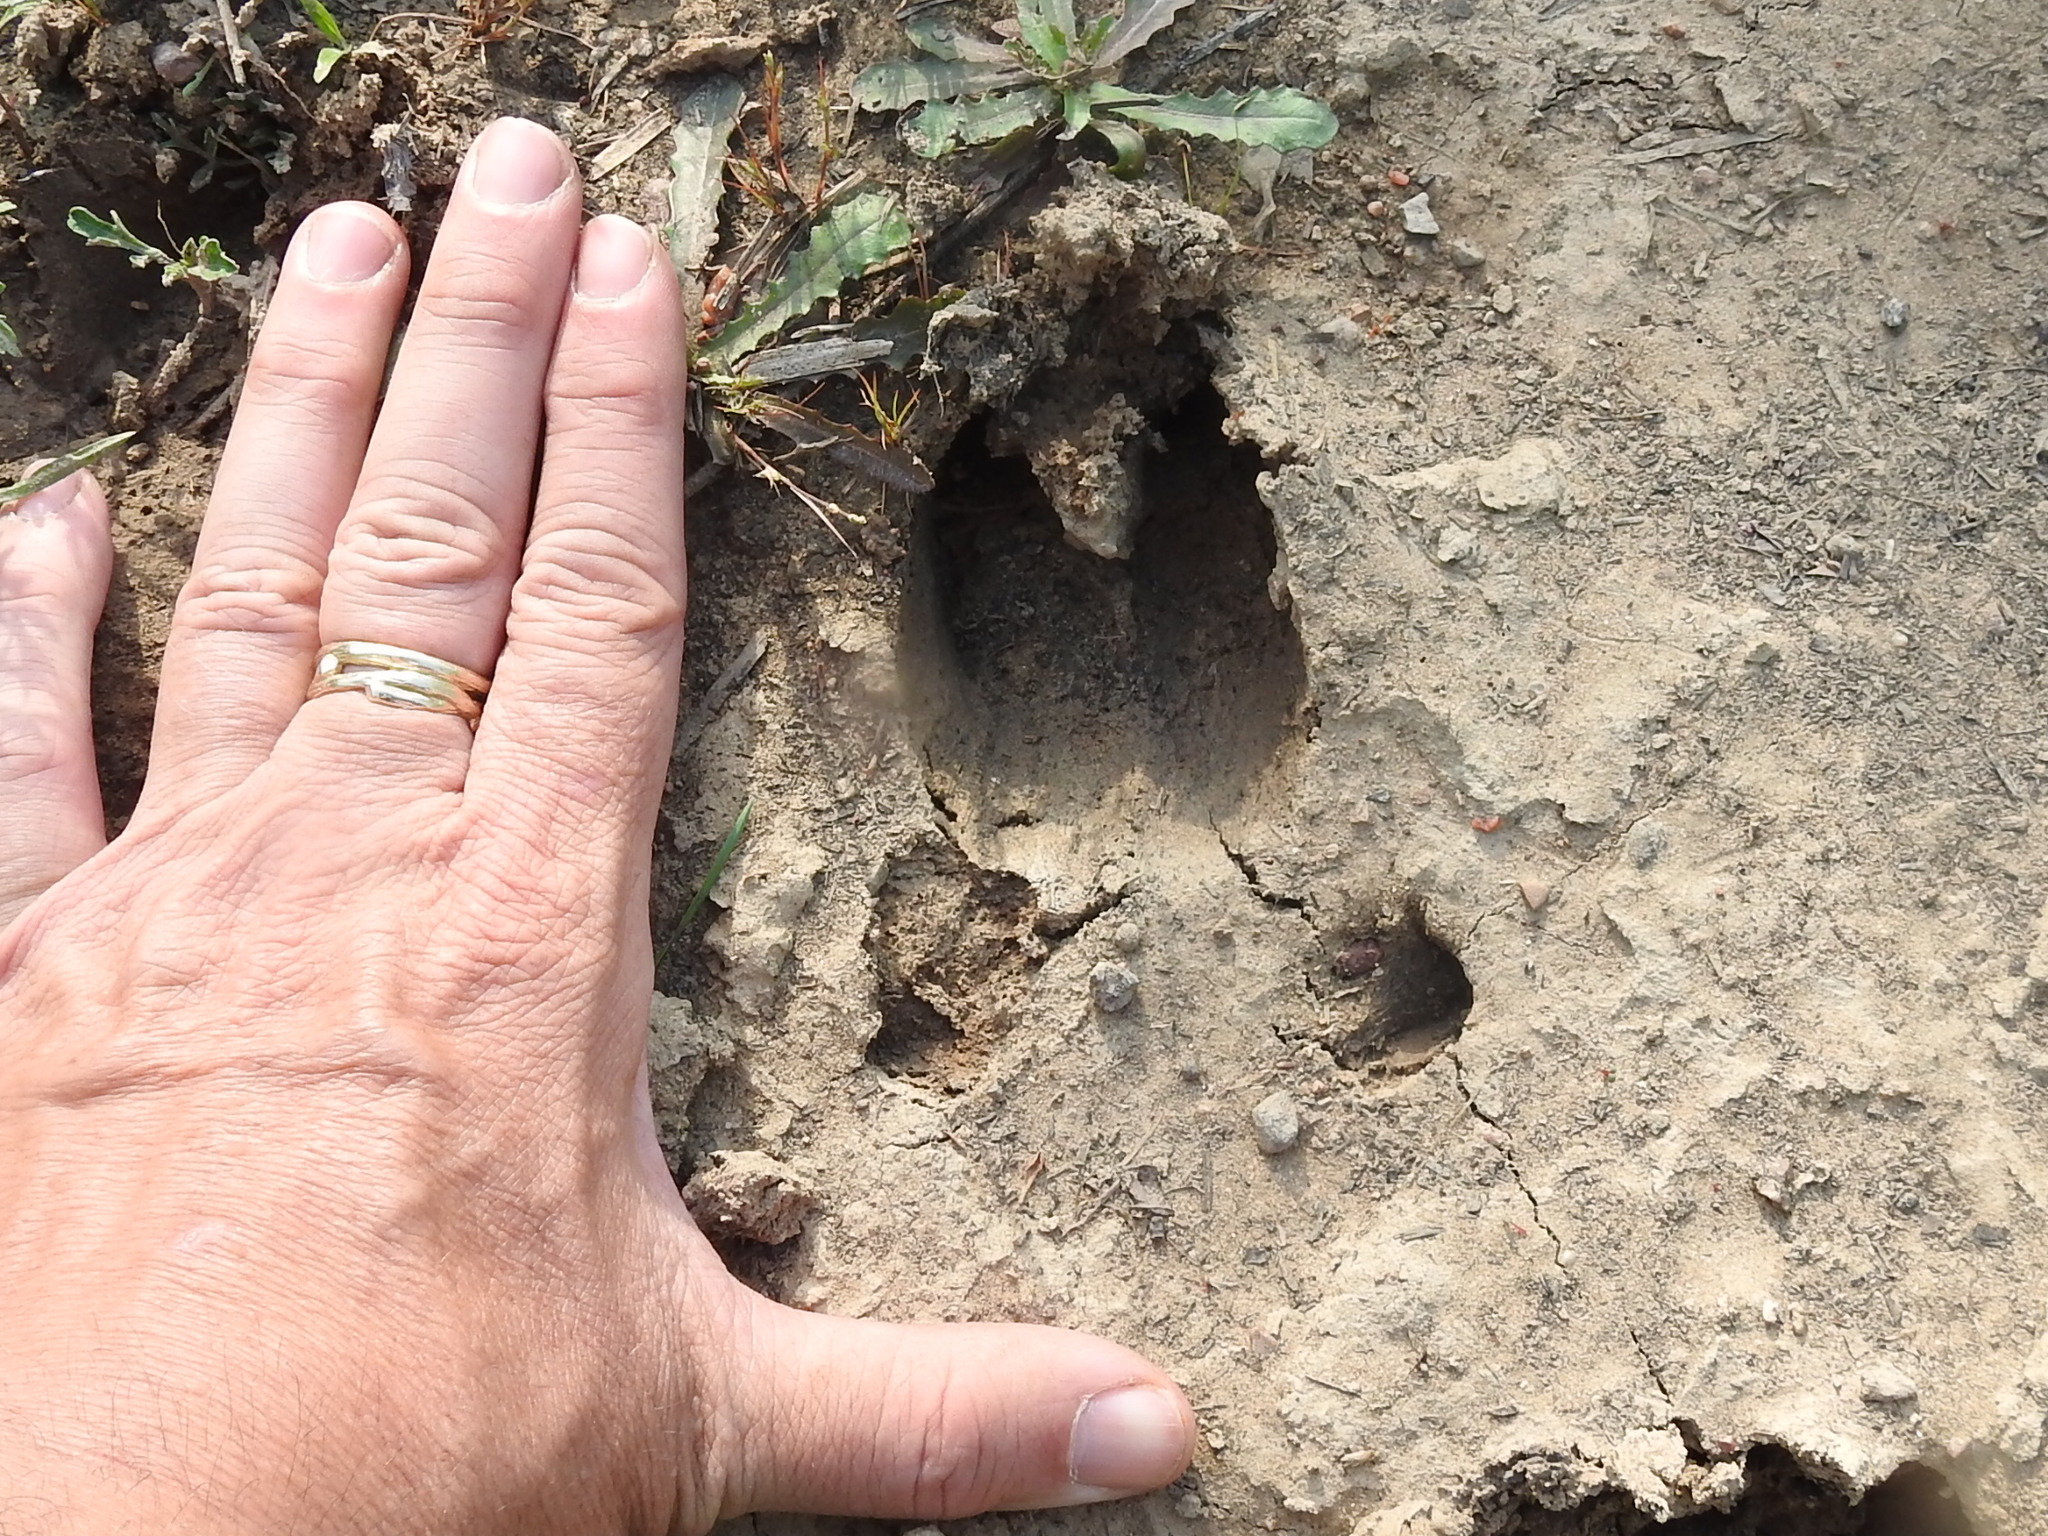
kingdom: Animalia
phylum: Chordata
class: Mammalia
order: Artiodactyla
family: Suidae
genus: Sus
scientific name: Sus scrofa
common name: Wild boar
